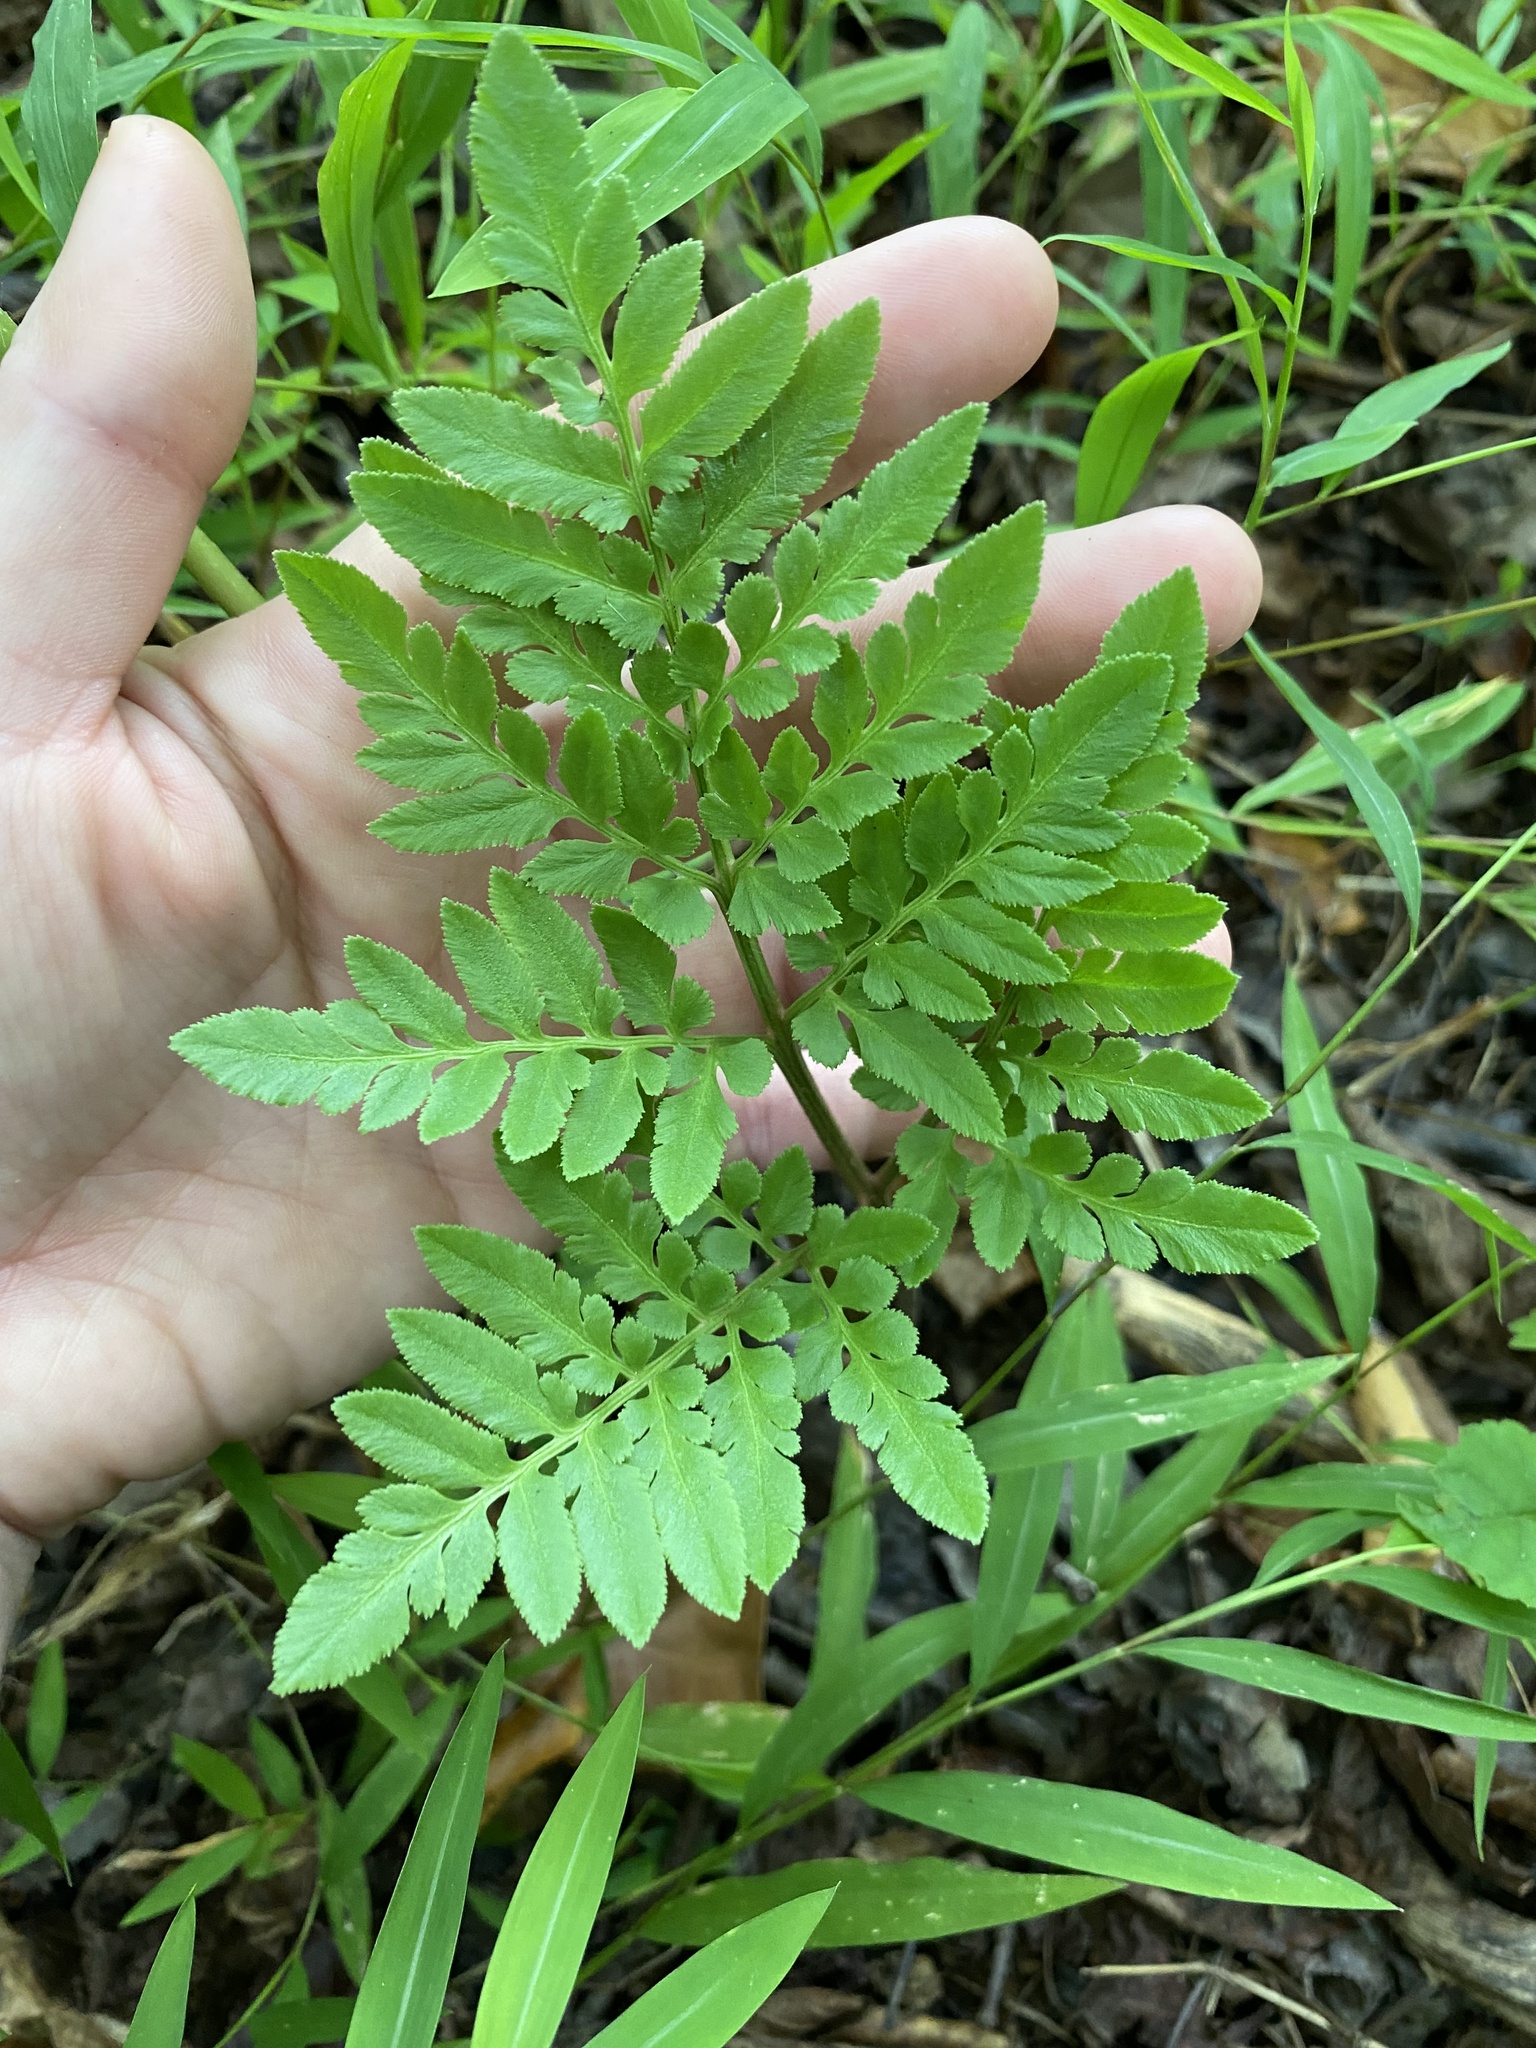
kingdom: Plantae
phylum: Tracheophyta
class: Polypodiopsida
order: Ophioglossales
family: Ophioglossaceae
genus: Sceptridium
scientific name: Sceptridium dissectum
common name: Cut-leaved grapefern
